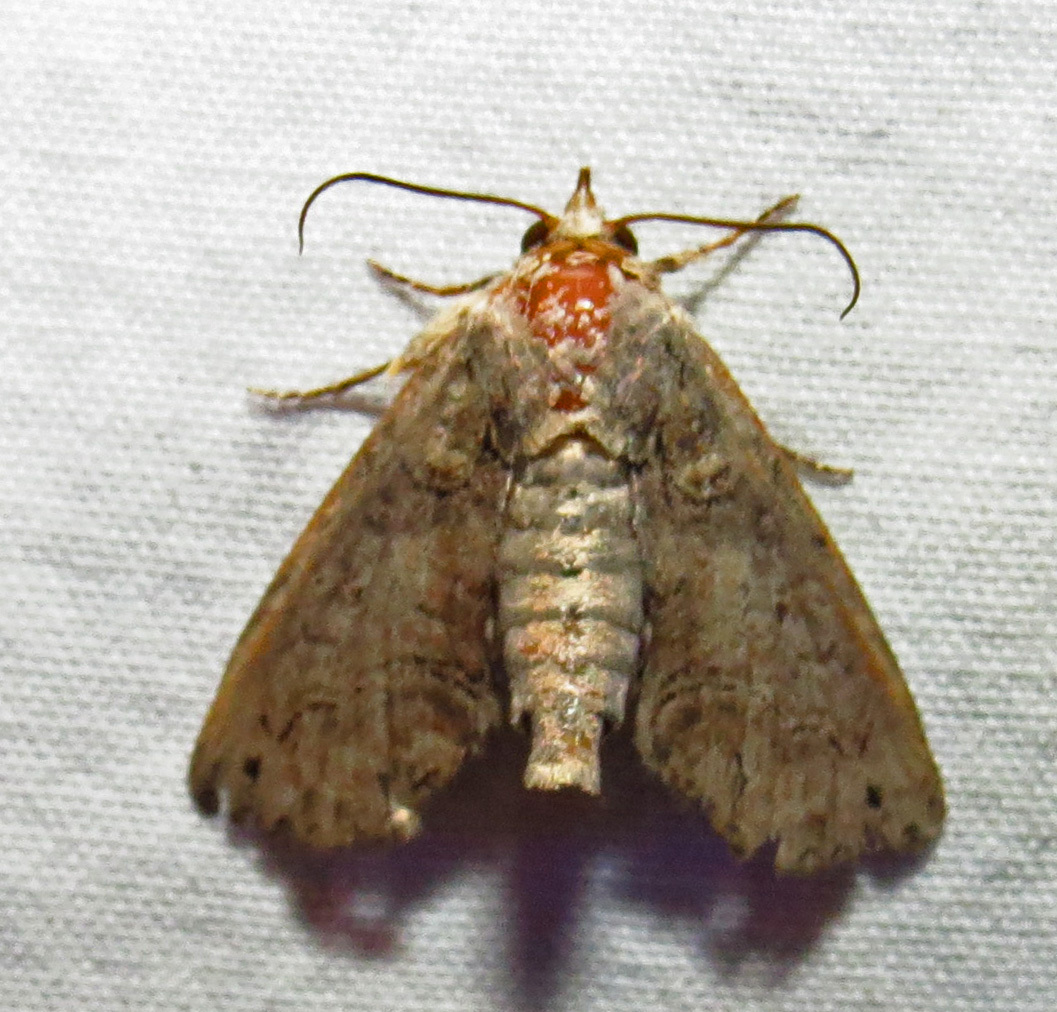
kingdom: Animalia
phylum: Arthropoda
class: Insecta
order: Lepidoptera
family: Euteliidae
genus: Paectes
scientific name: Paectes abrostoloides
